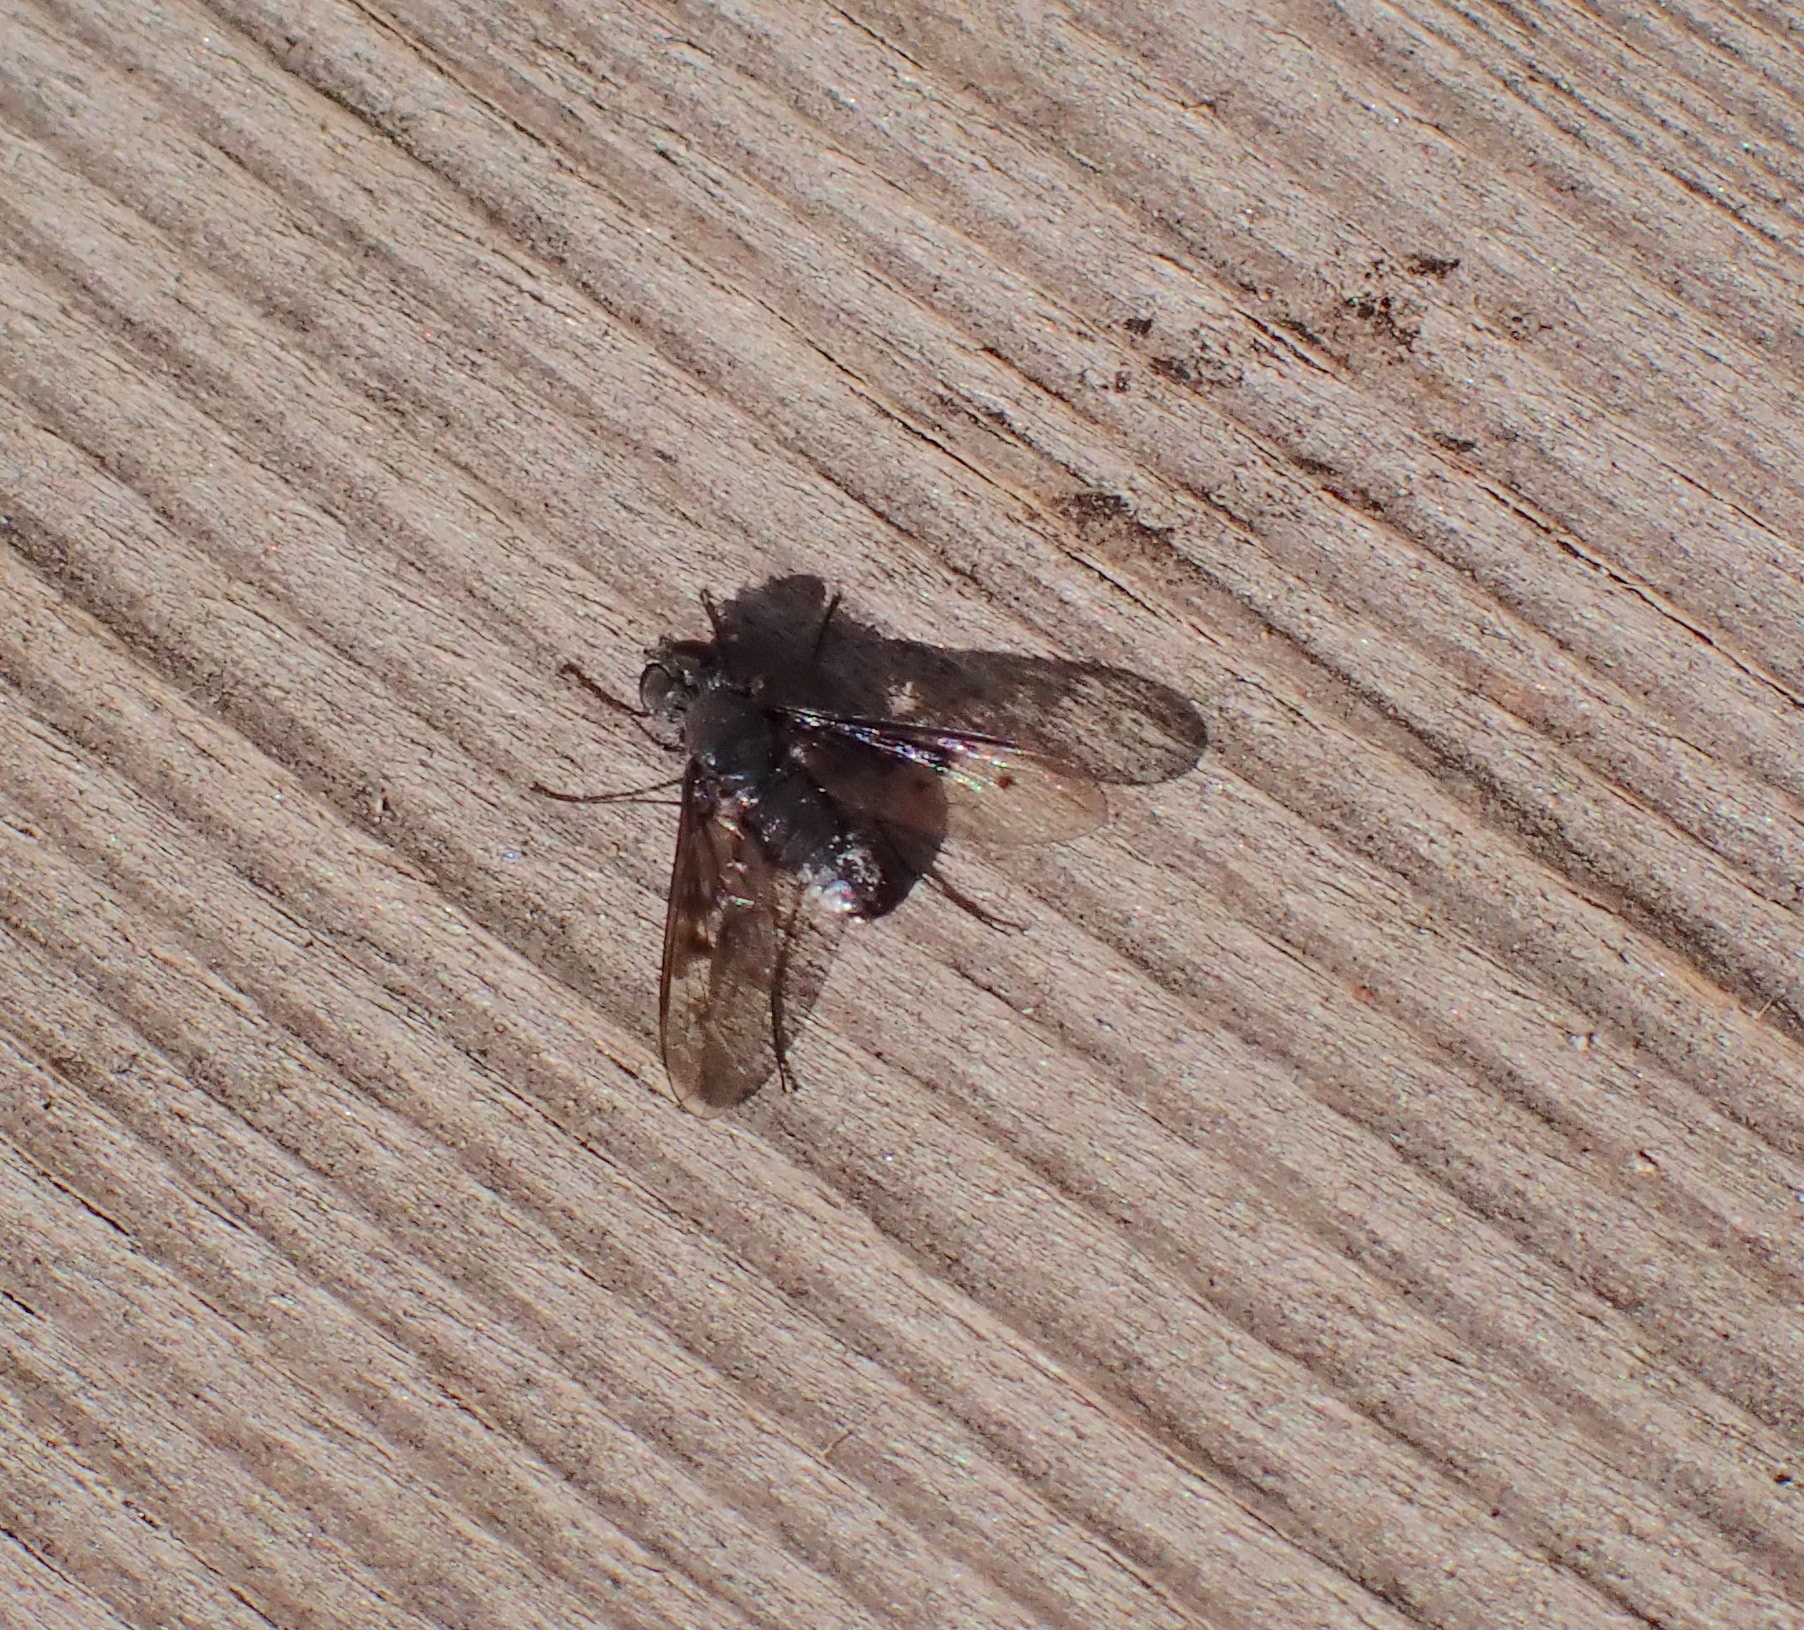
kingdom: Animalia
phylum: Arthropoda
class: Insecta
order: Diptera
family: Bombyliidae
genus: Anthrax
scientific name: Anthrax trifasciatus
